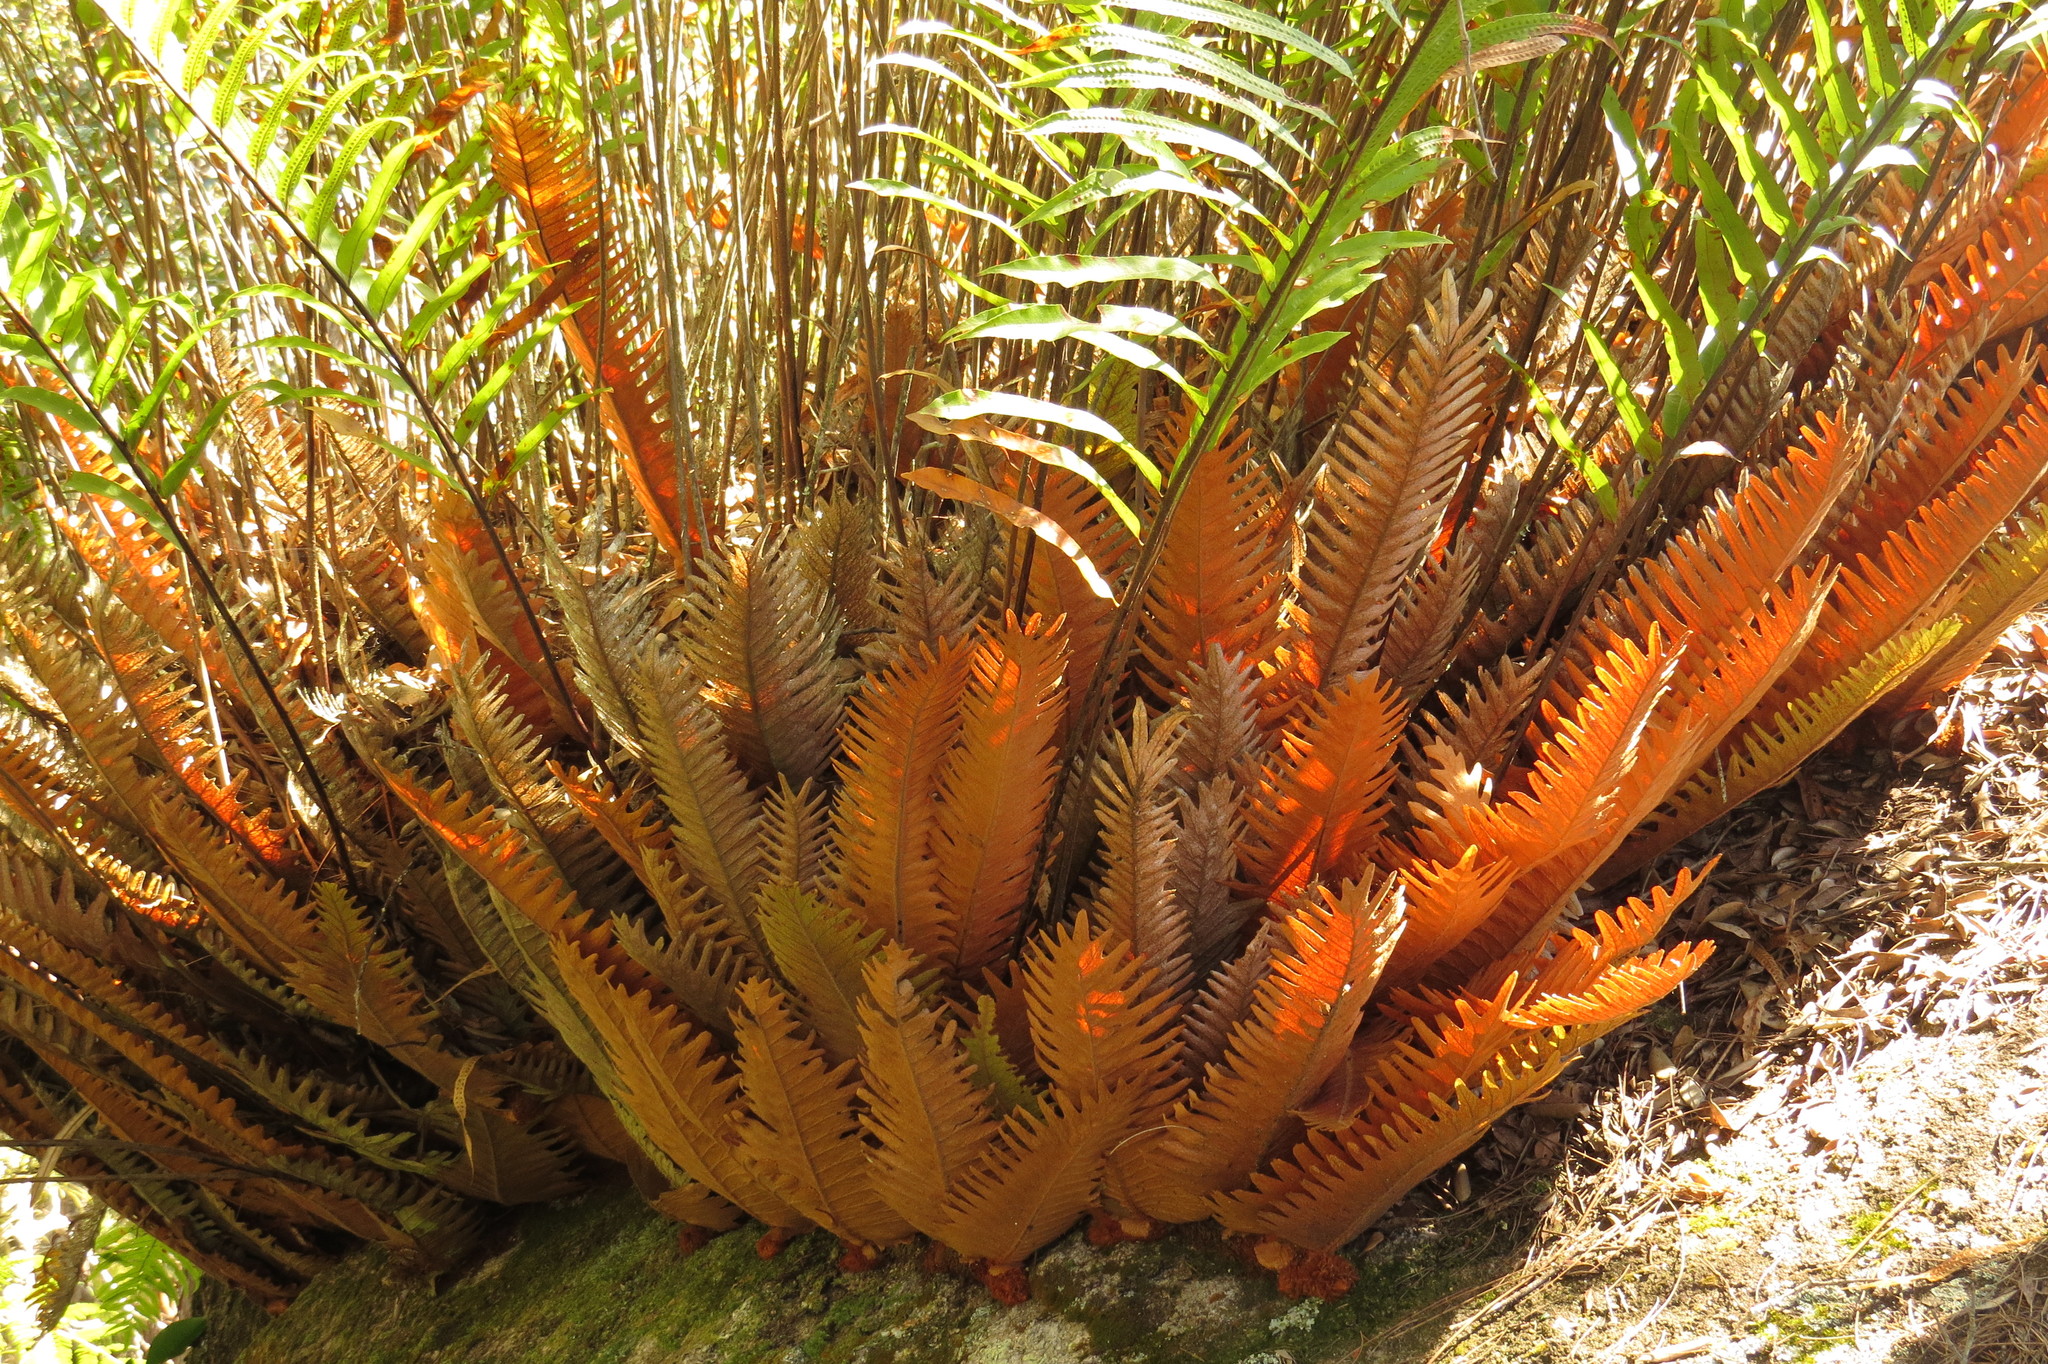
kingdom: Plantae
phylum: Tracheophyta
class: Polypodiopsida
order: Polypodiales
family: Polypodiaceae
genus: Drynaria
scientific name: Drynaria rigidula
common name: Basket fern
